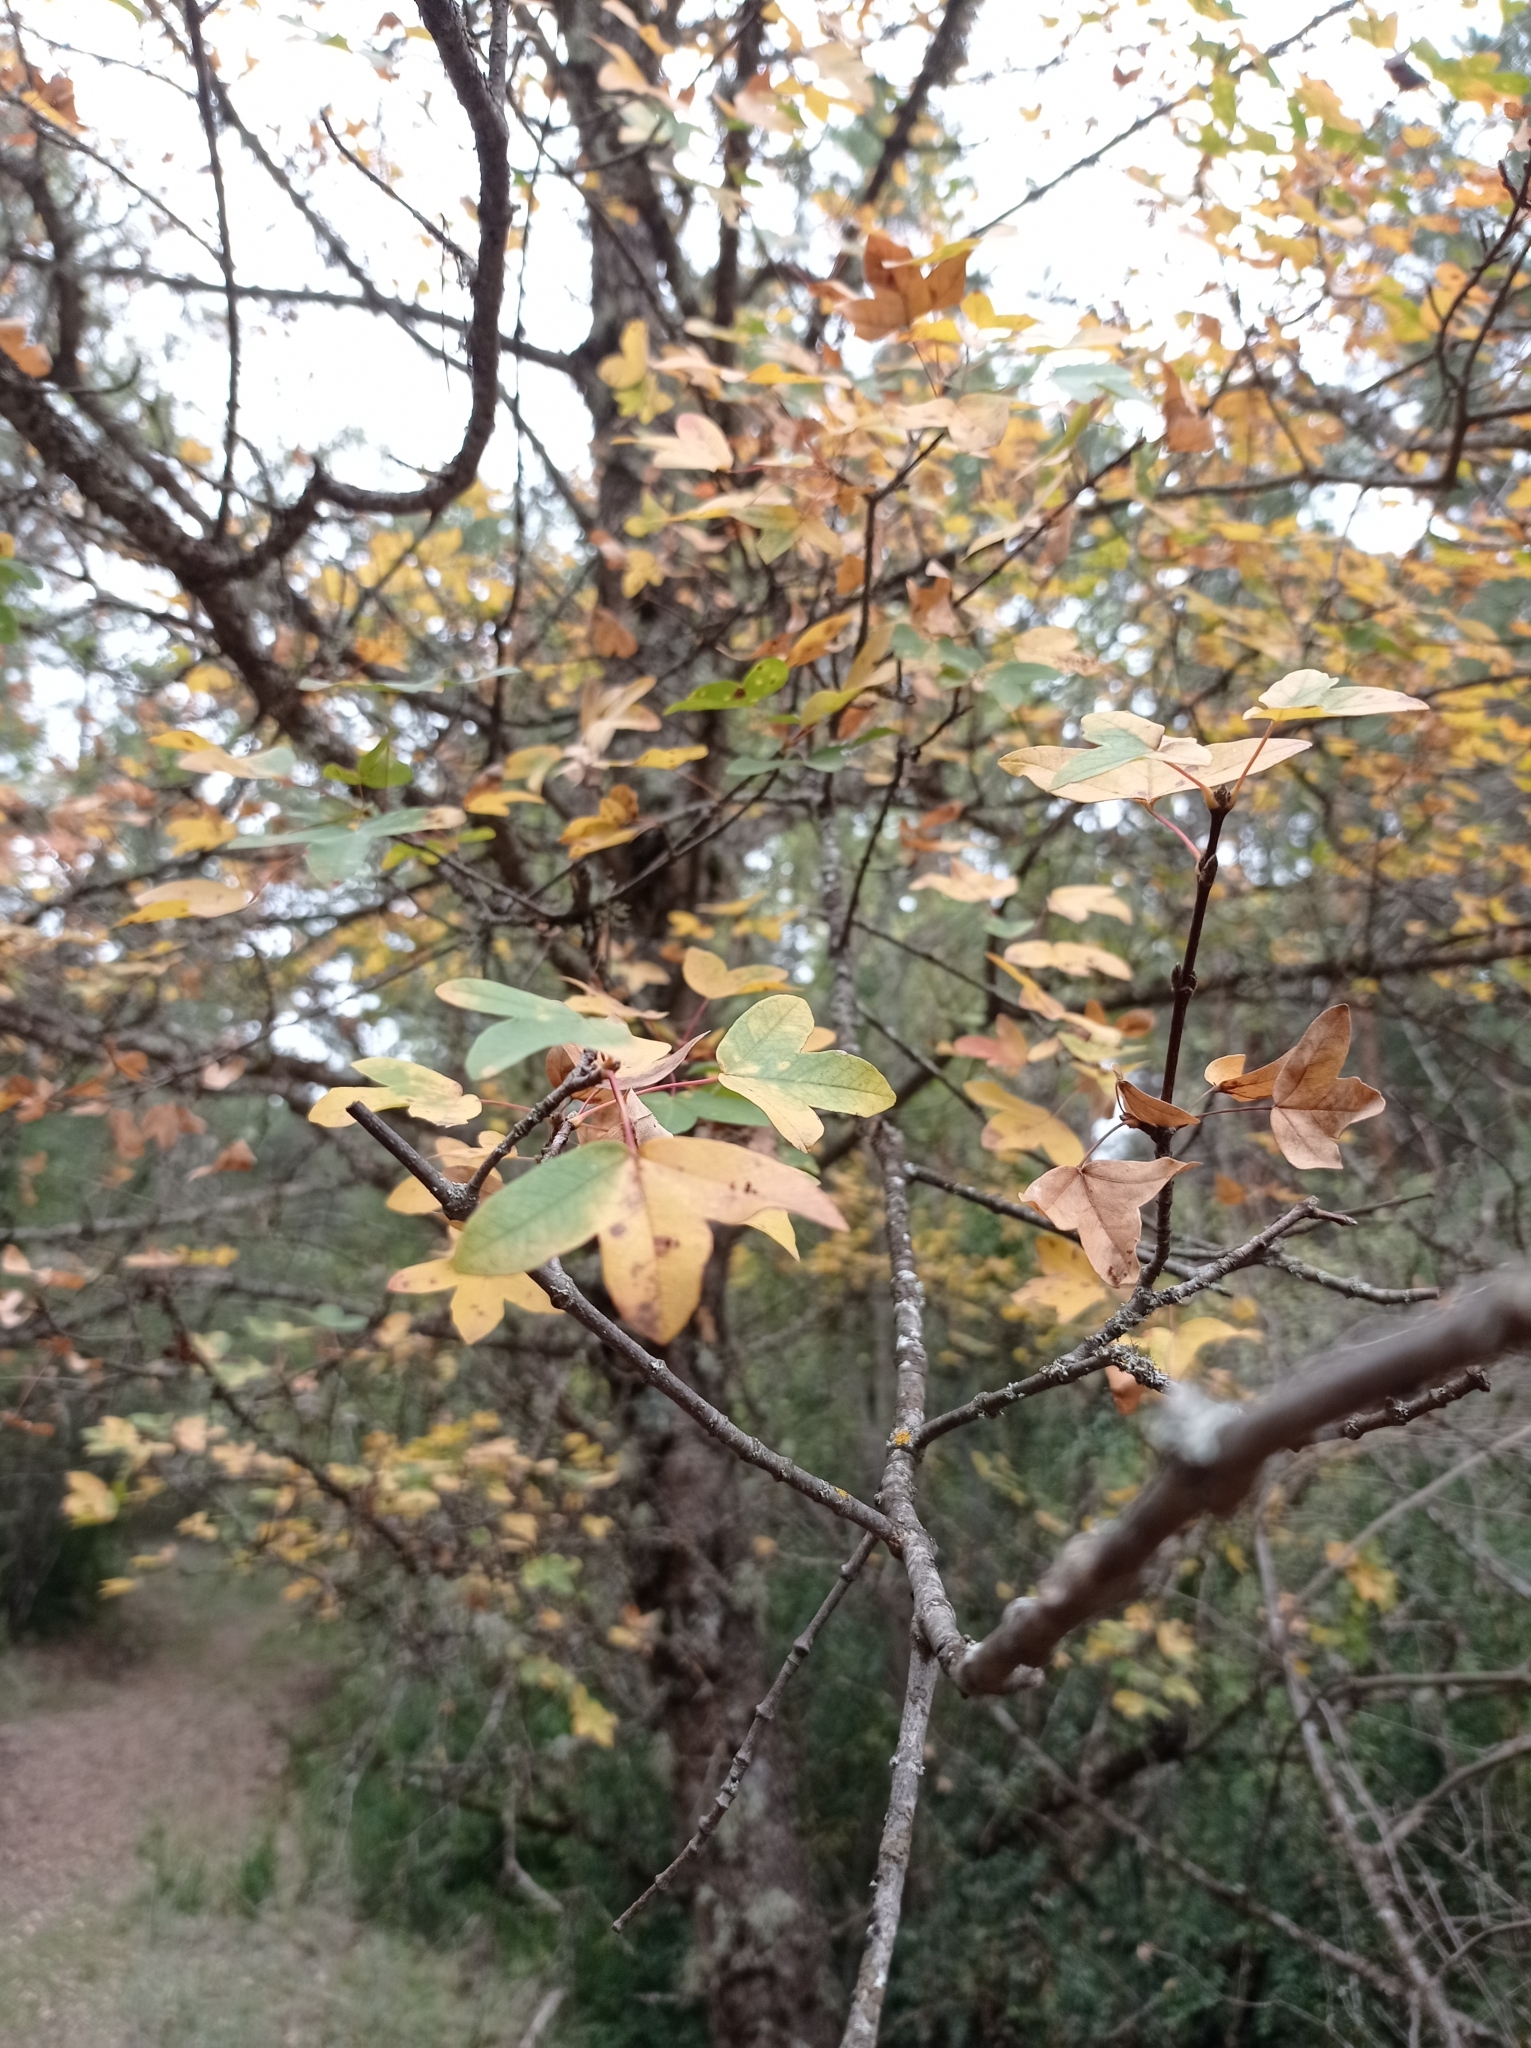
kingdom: Plantae
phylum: Tracheophyta
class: Magnoliopsida
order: Sapindales
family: Sapindaceae
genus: Acer
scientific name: Acer monspessulanum
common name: Montpellier maple
